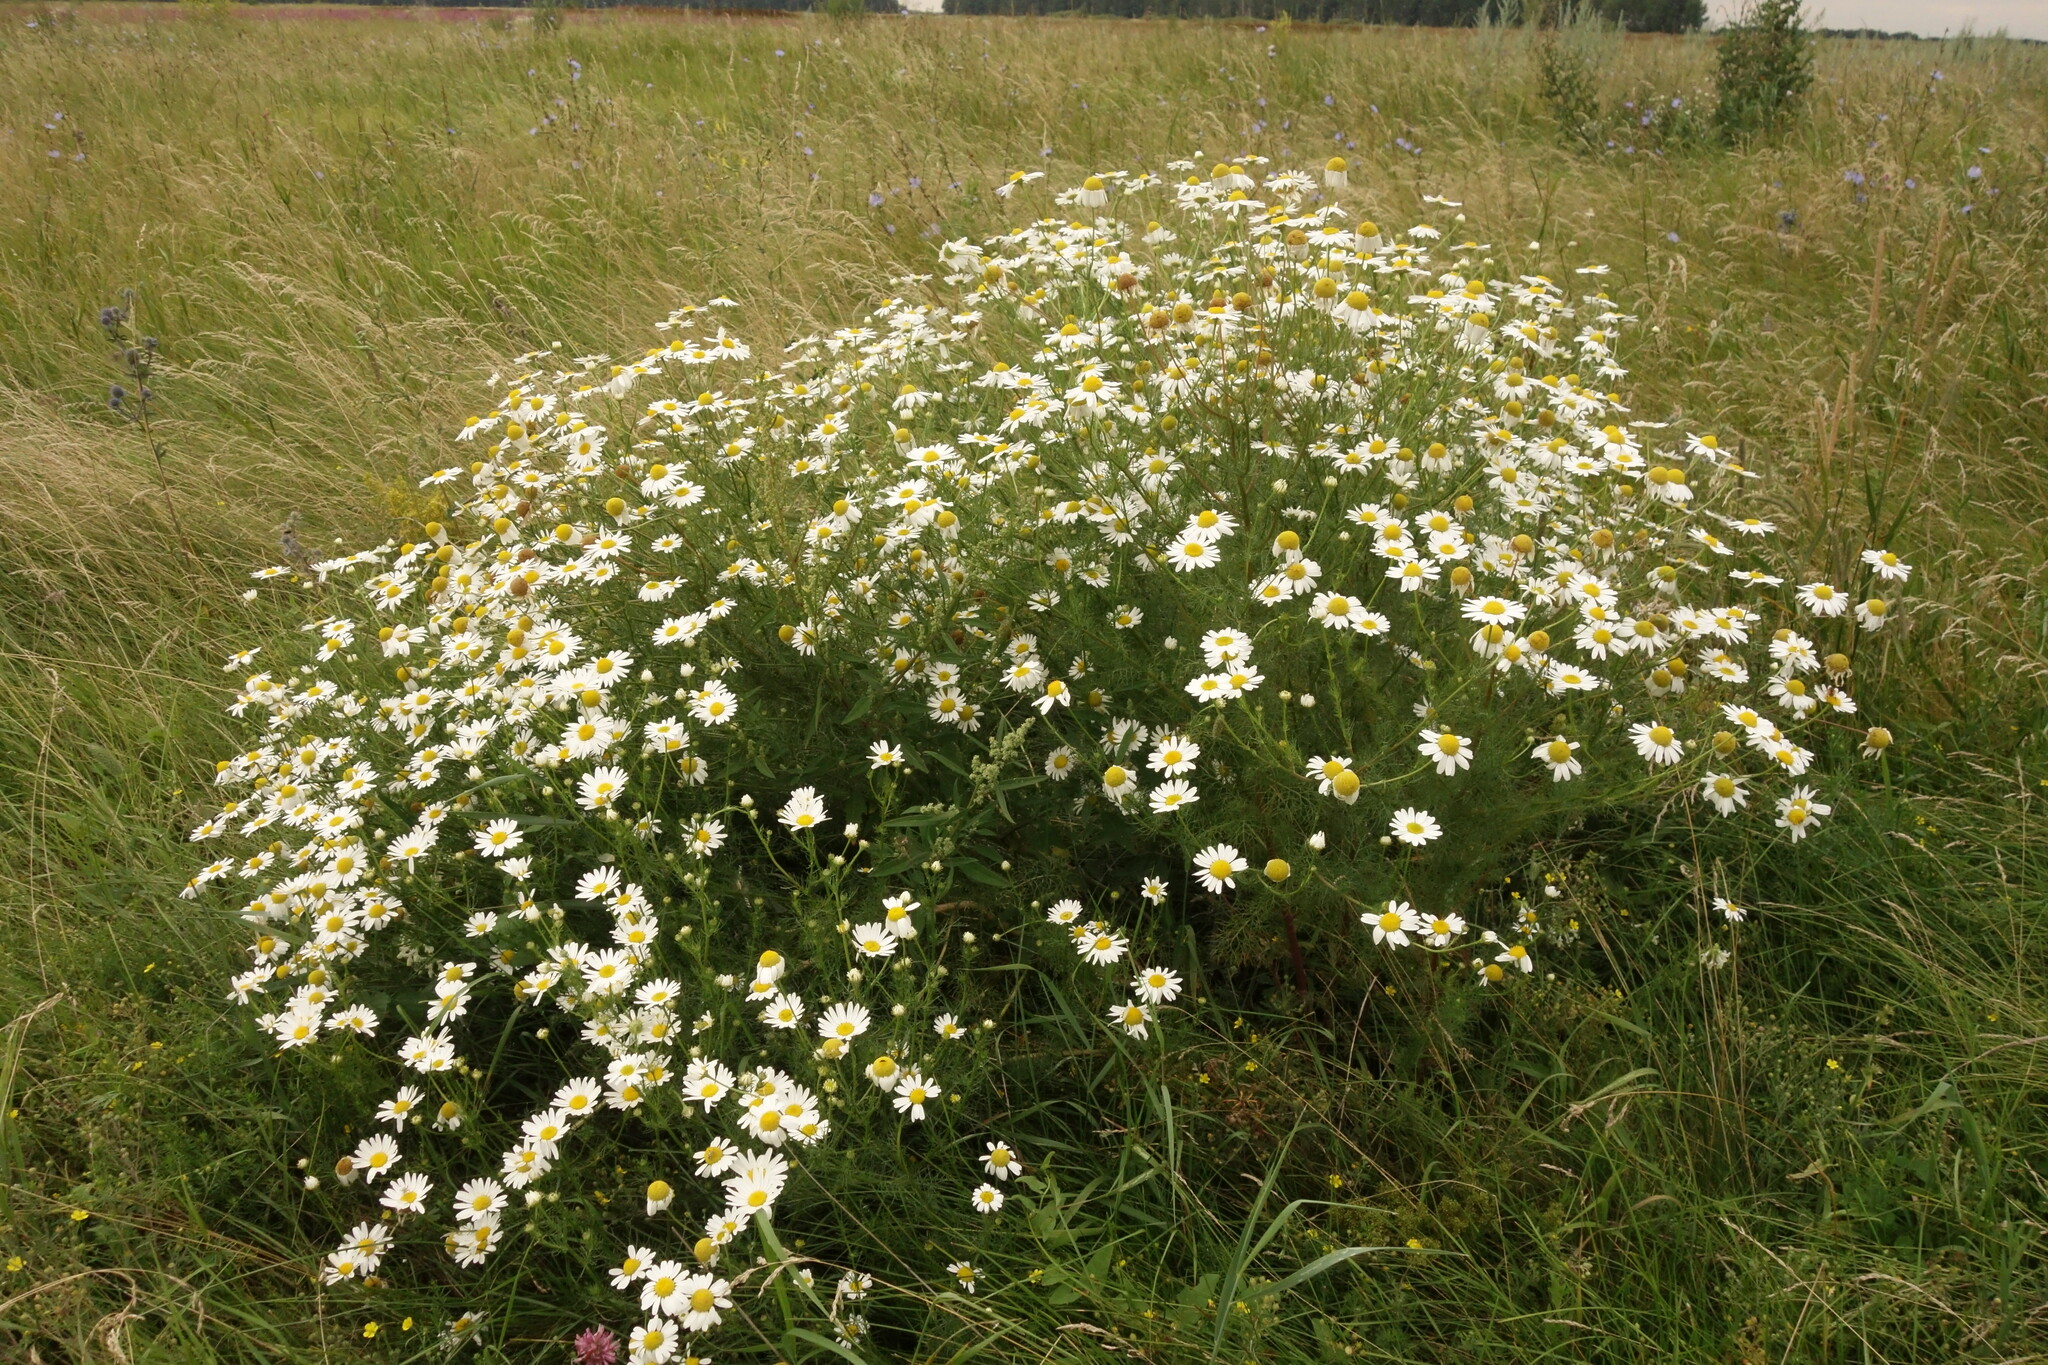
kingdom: Plantae
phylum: Tracheophyta
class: Magnoliopsida
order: Asterales
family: Asteraceae
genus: Tripleurospermum
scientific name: Tripleurospermum inodorum
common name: Scentless mayweed
